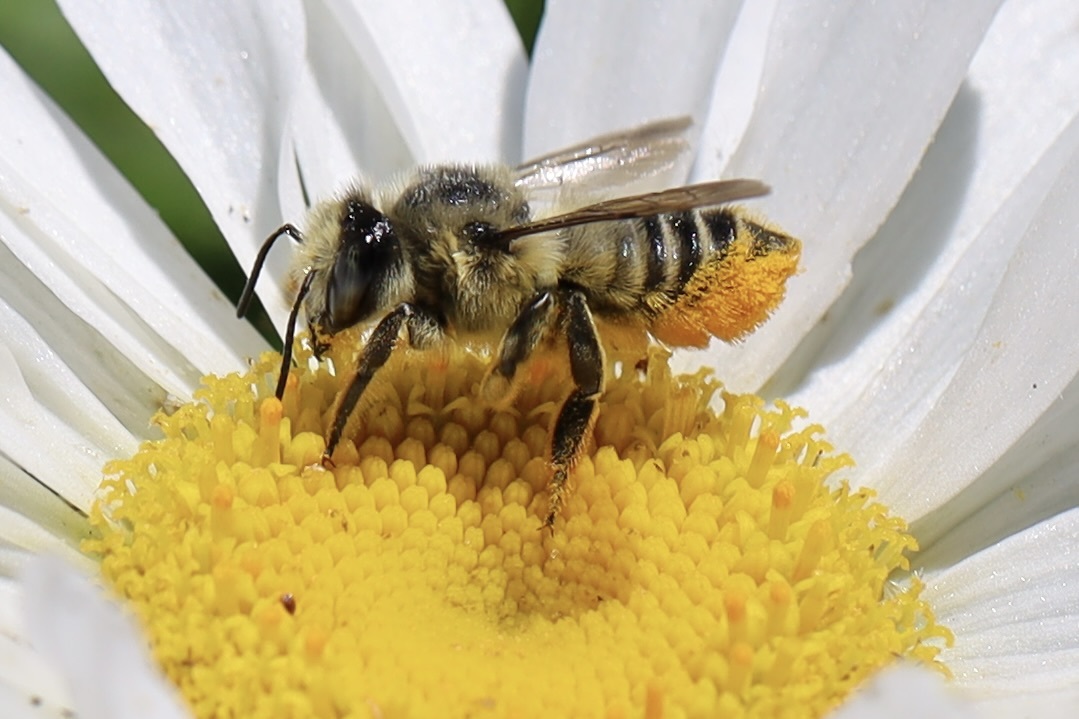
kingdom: Animalia
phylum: Arthropoda
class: Insecta
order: Hymenoptera
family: Megachilidae
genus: Megachile
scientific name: Megachile perihirta
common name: Western leafcutter
